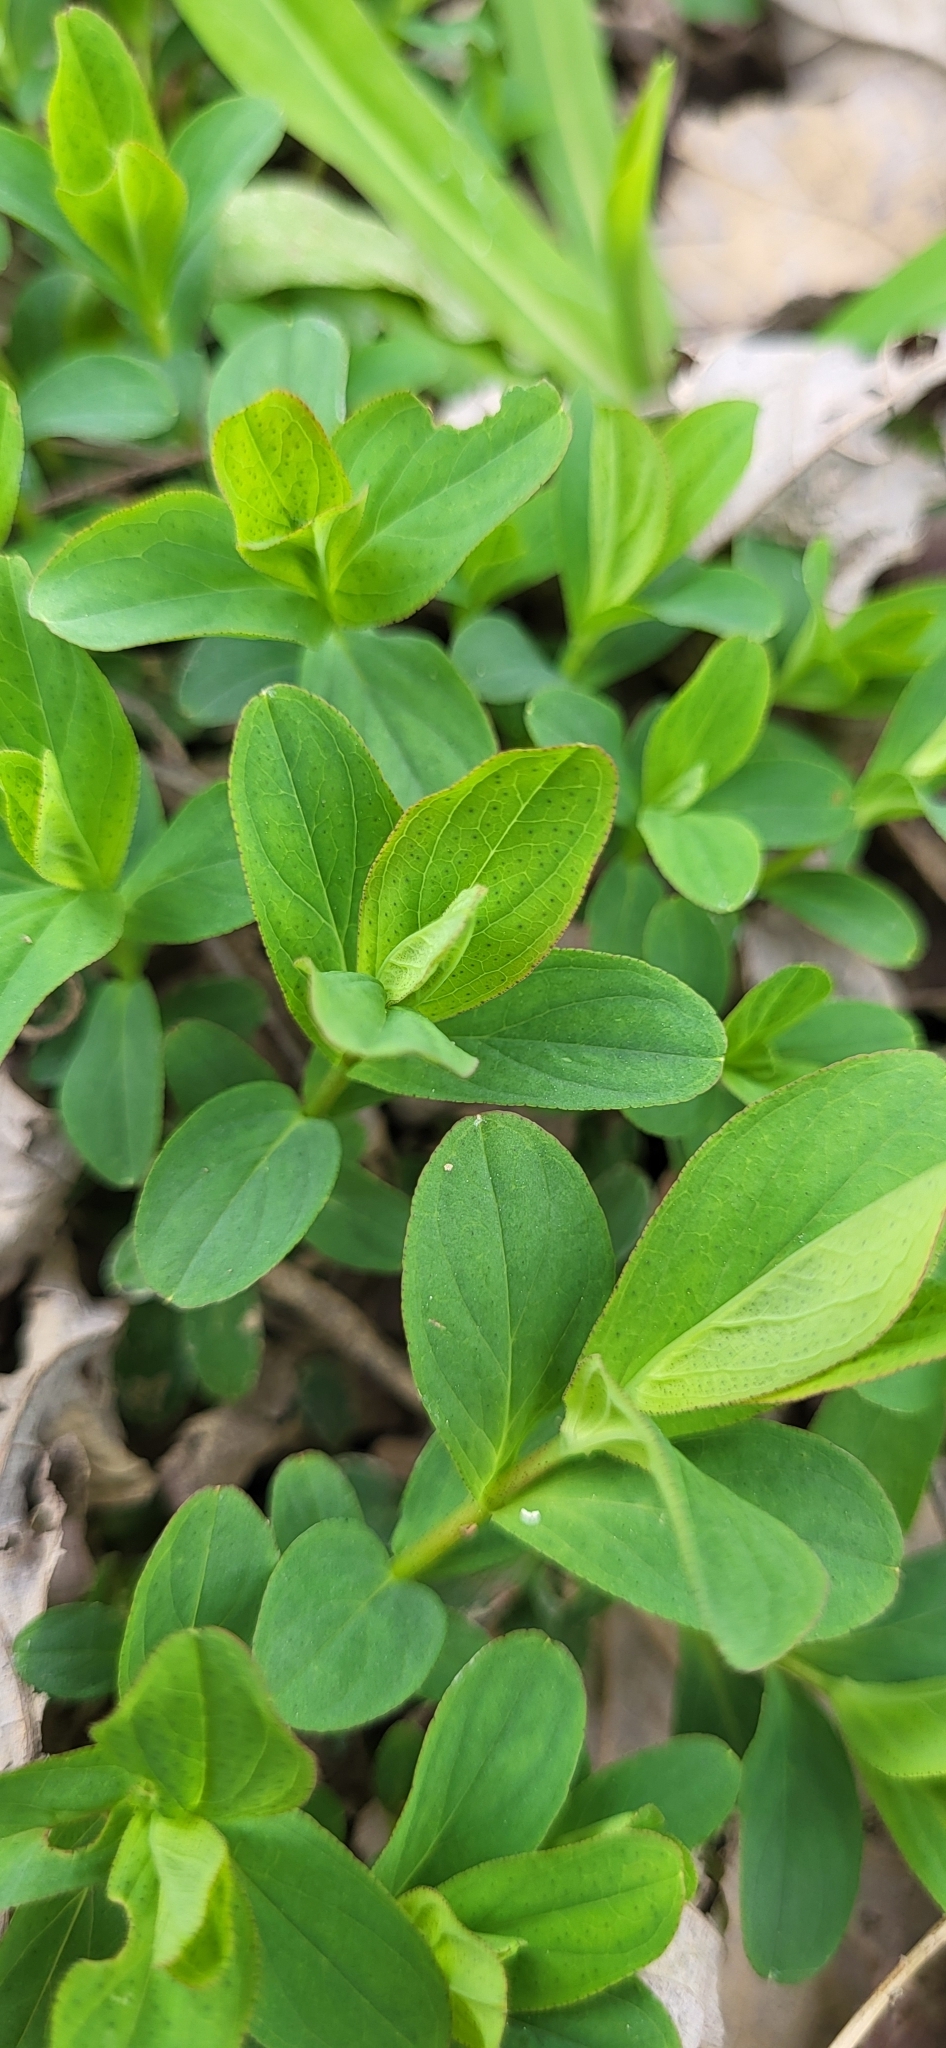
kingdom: Plantae
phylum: Tracheophyta
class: Magnoliopsida
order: Malpighiales
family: Hypericaceae
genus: Hypericum
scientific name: Hypericum punctatum
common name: Spotted st. john's-wort
